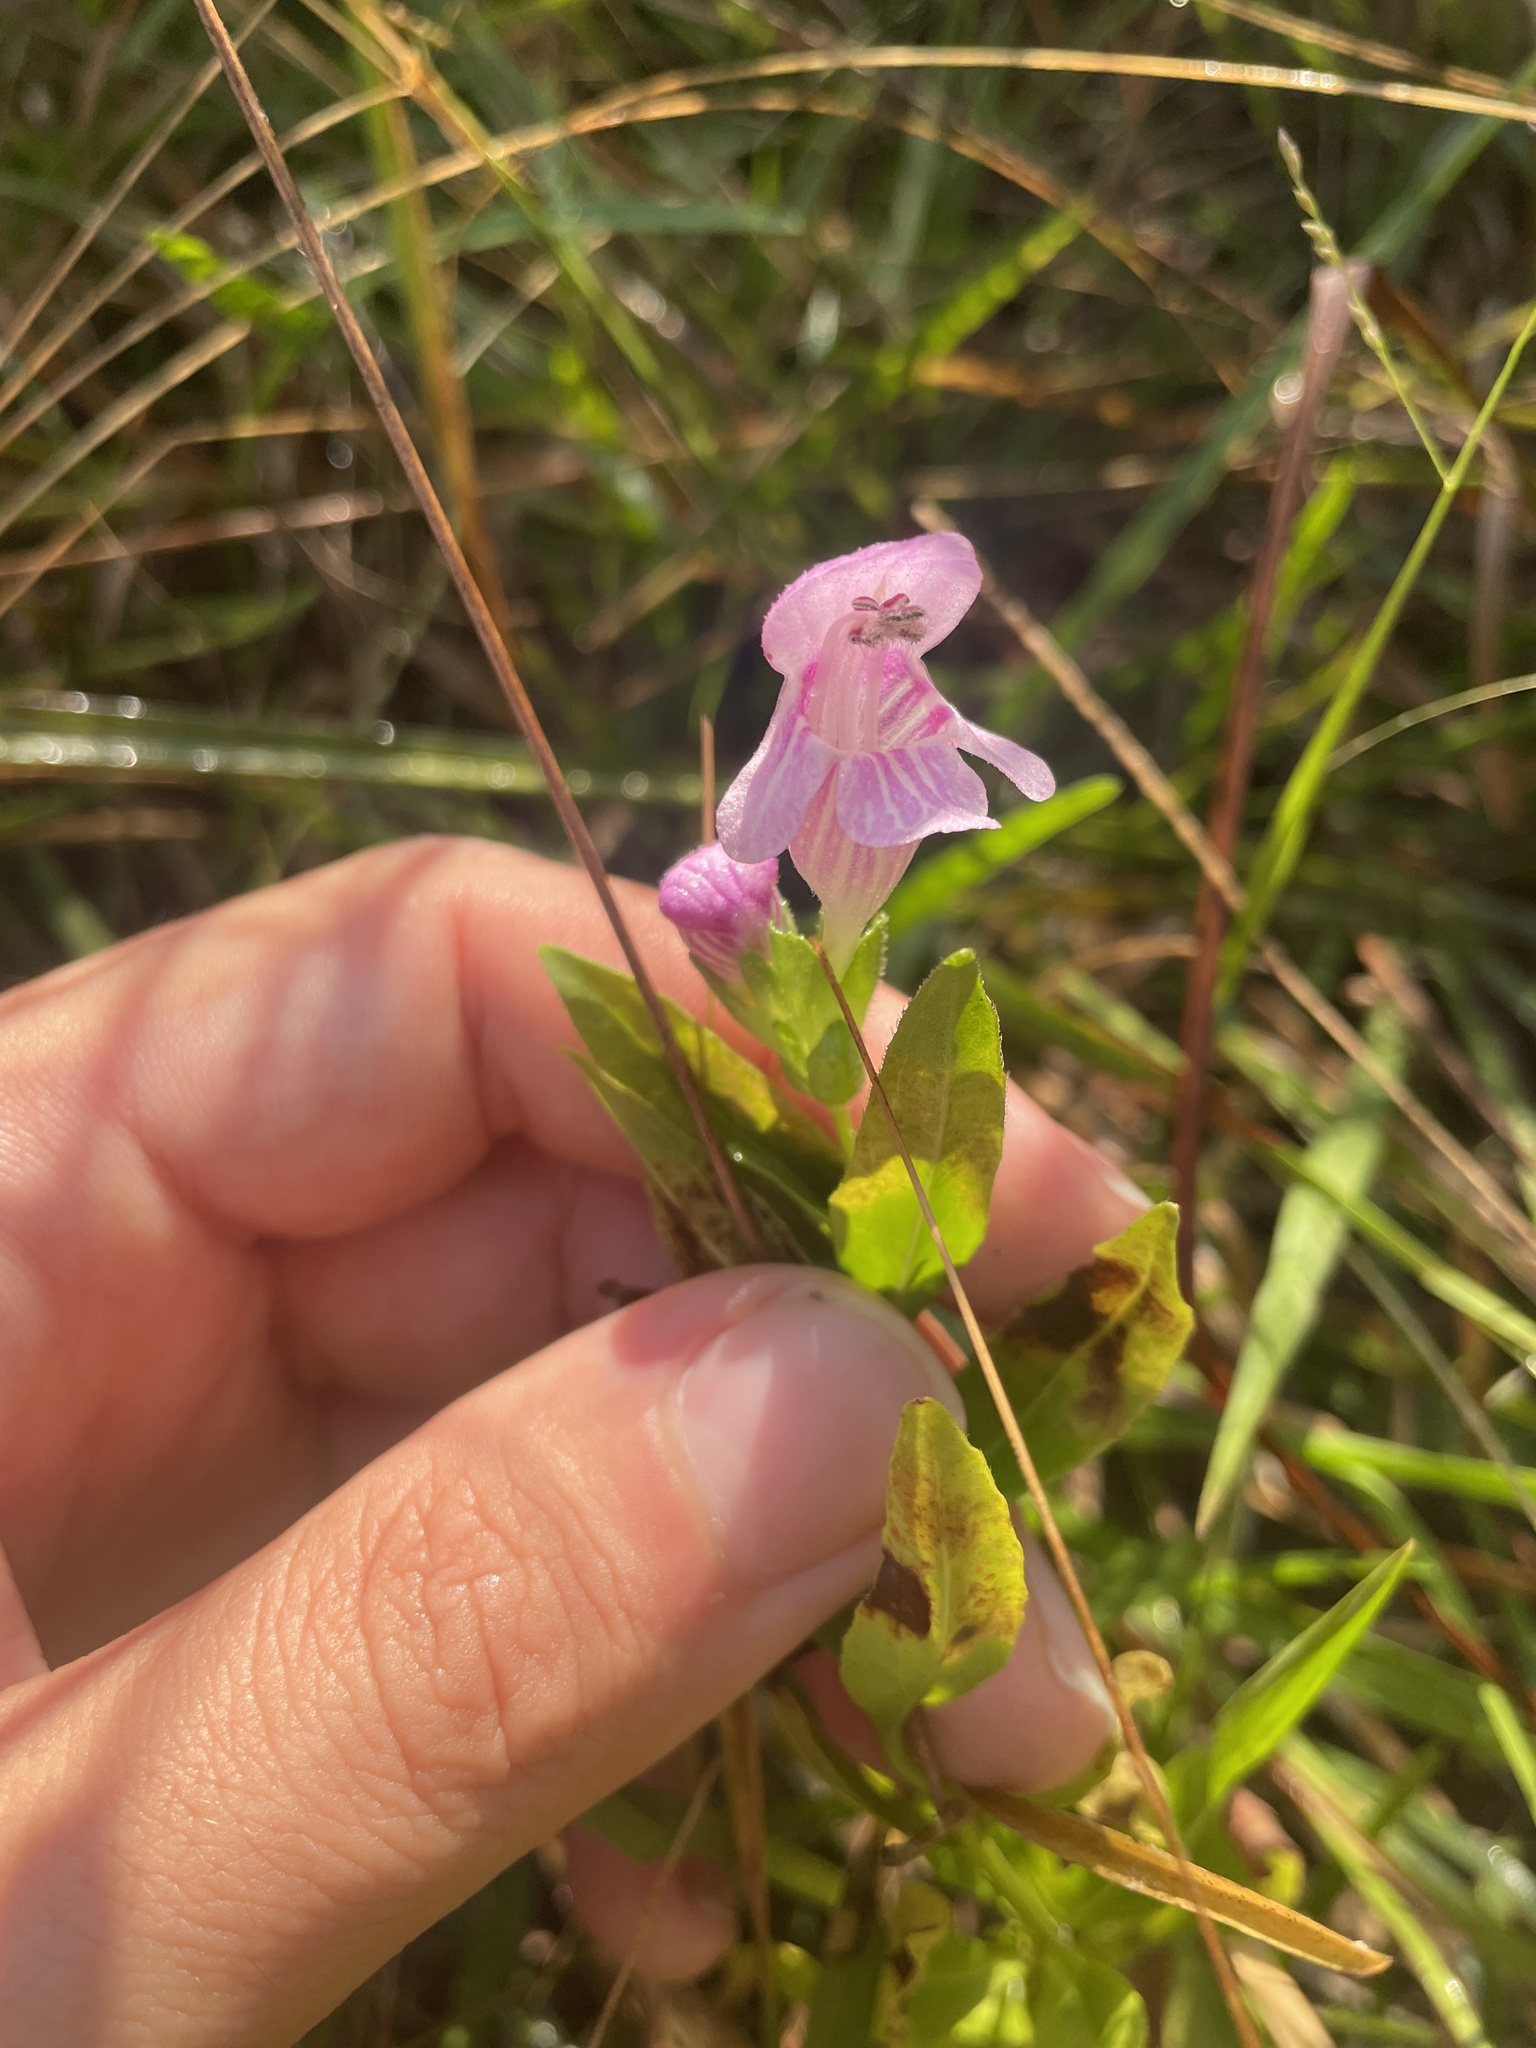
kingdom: Plantae
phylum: Tracheophyta
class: Magnoliopsida
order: Lamiales
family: Lamiaceae
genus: Macbridea
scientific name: Macbridea caroliniana
